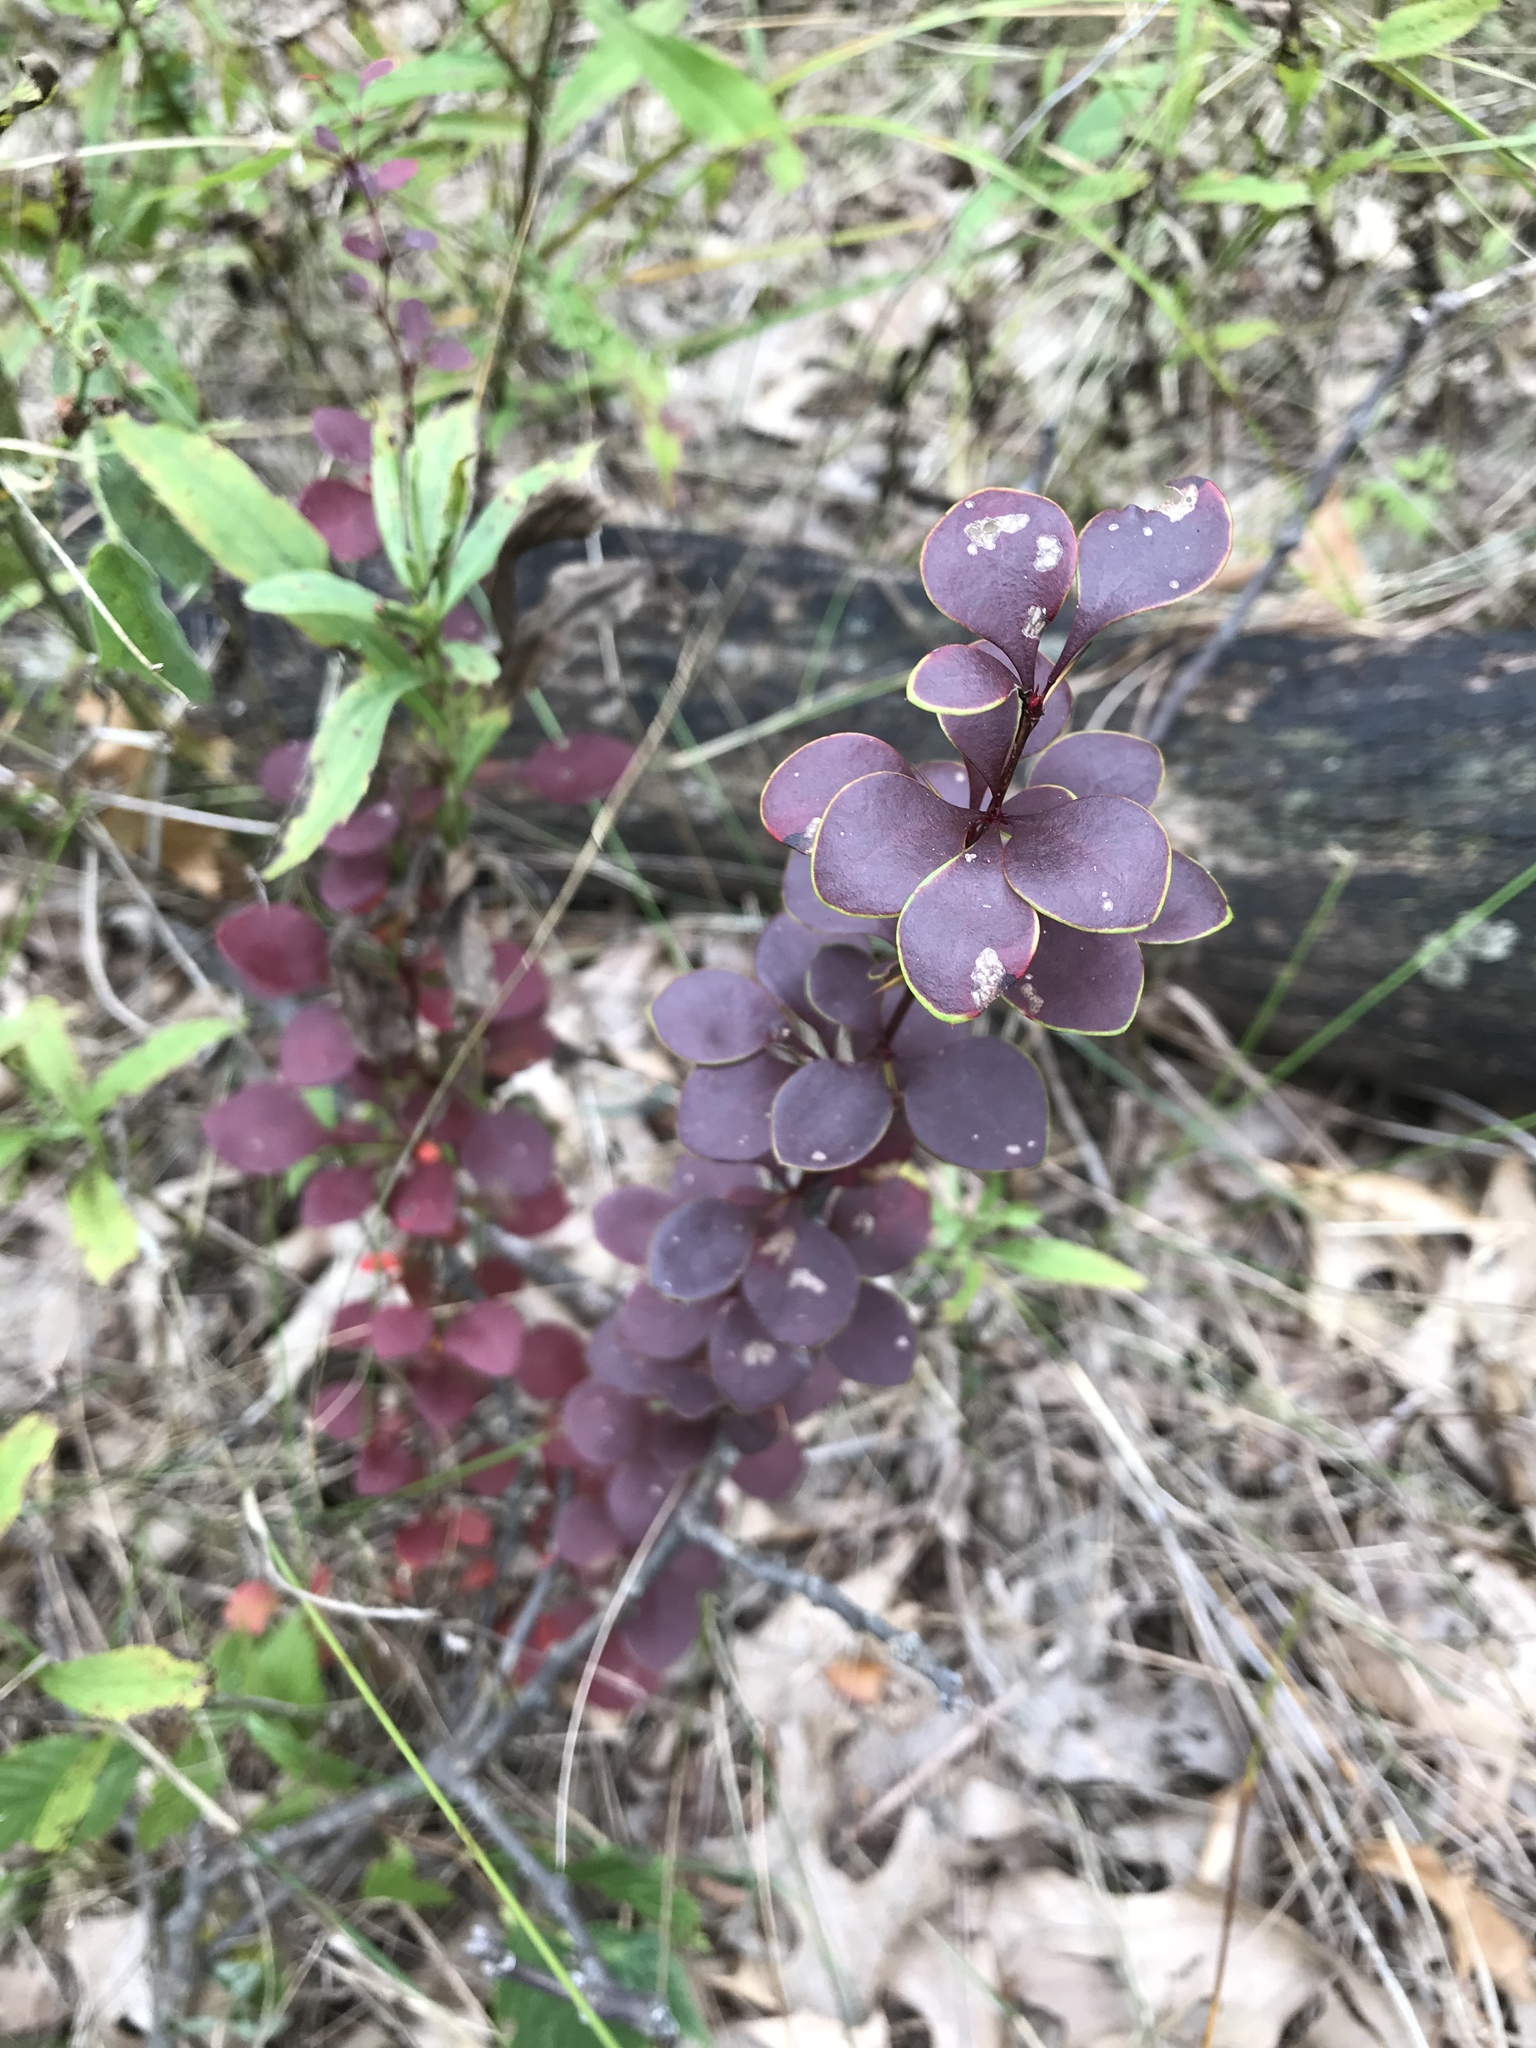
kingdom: Plantae
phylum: Tracheophyta
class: Magnoliopsida
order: Ranunculales
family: Berberidaceae
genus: Berberis
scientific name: Berberis thunbergii
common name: Japanese barberry
